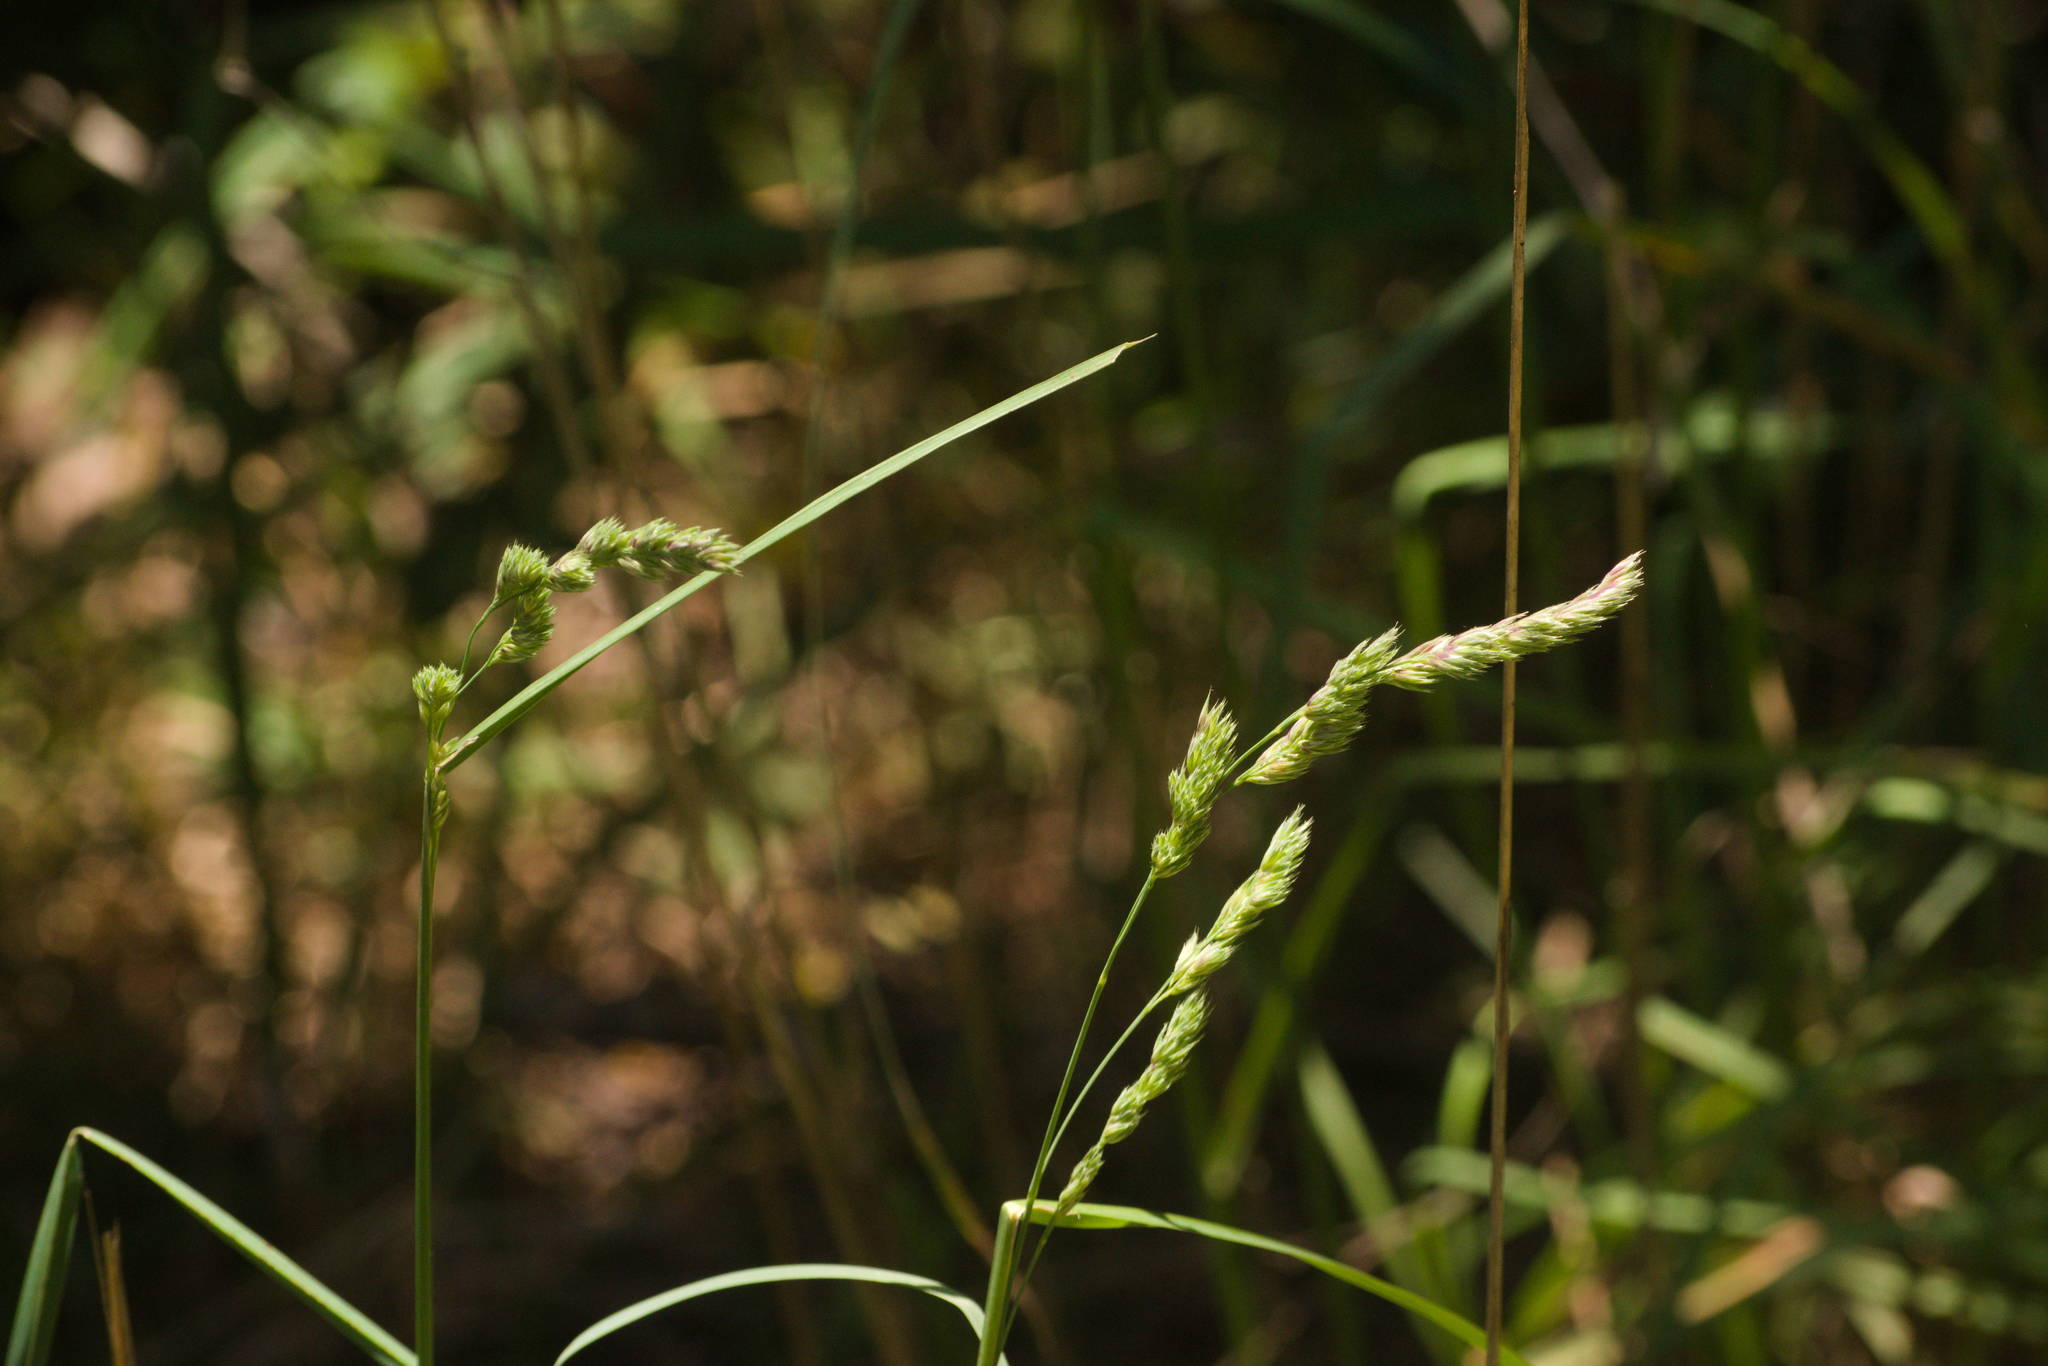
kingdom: Plantae
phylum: Tracheophyta
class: Liliopsida
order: Poales
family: Poaceae
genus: Dactylis
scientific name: Dactylis glomerata
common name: Orchardgrass
